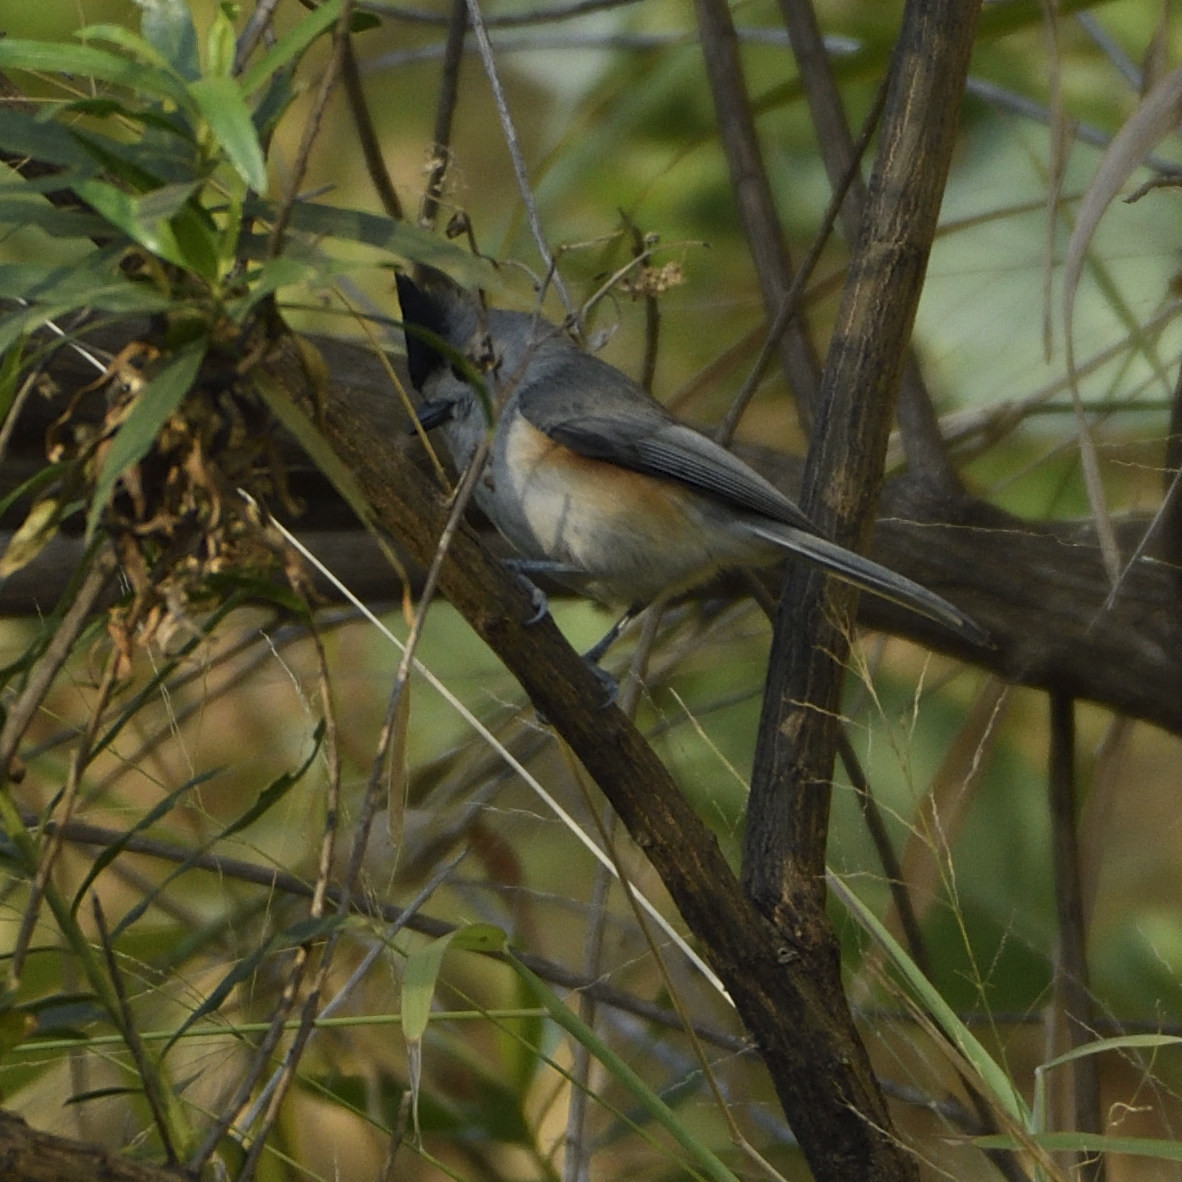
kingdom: Animalia
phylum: Chordata
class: Aves
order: Passeriformes
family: Paridae
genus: Baeolophus
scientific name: Baeolophus atricristatus
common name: Black-crested titmouse
